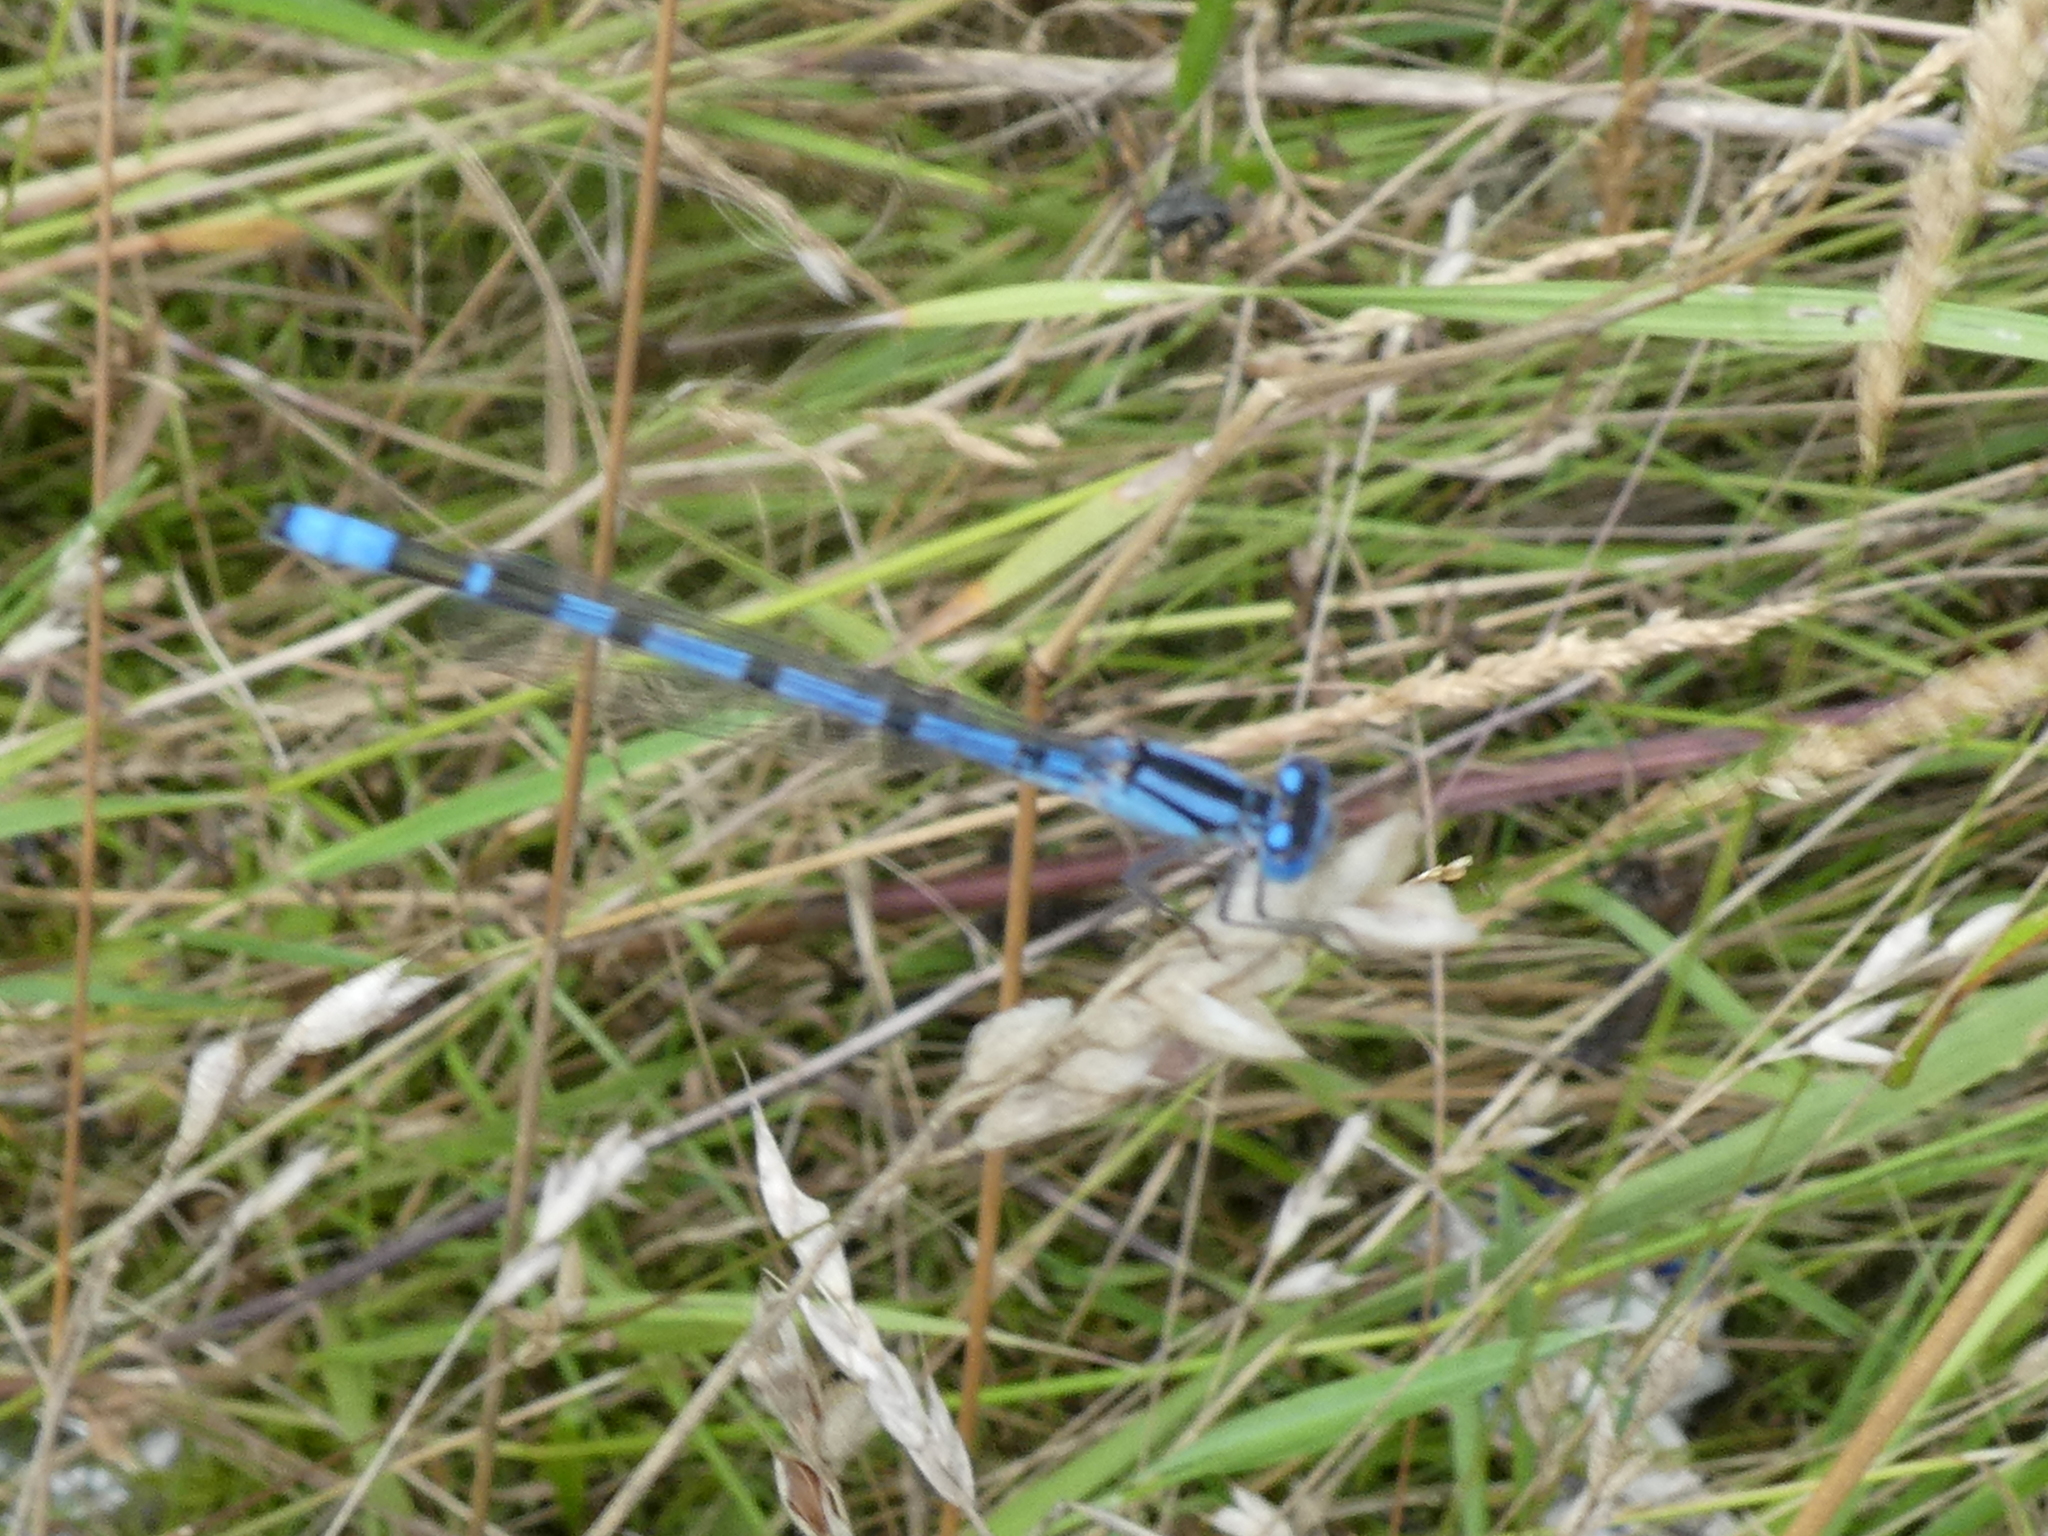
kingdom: Animalia
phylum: Arthropoda
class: Insecta
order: Odonata
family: Coenagrionidae
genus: Enallagma
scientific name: Enallagma cyathigerum
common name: Common blue damselfly
